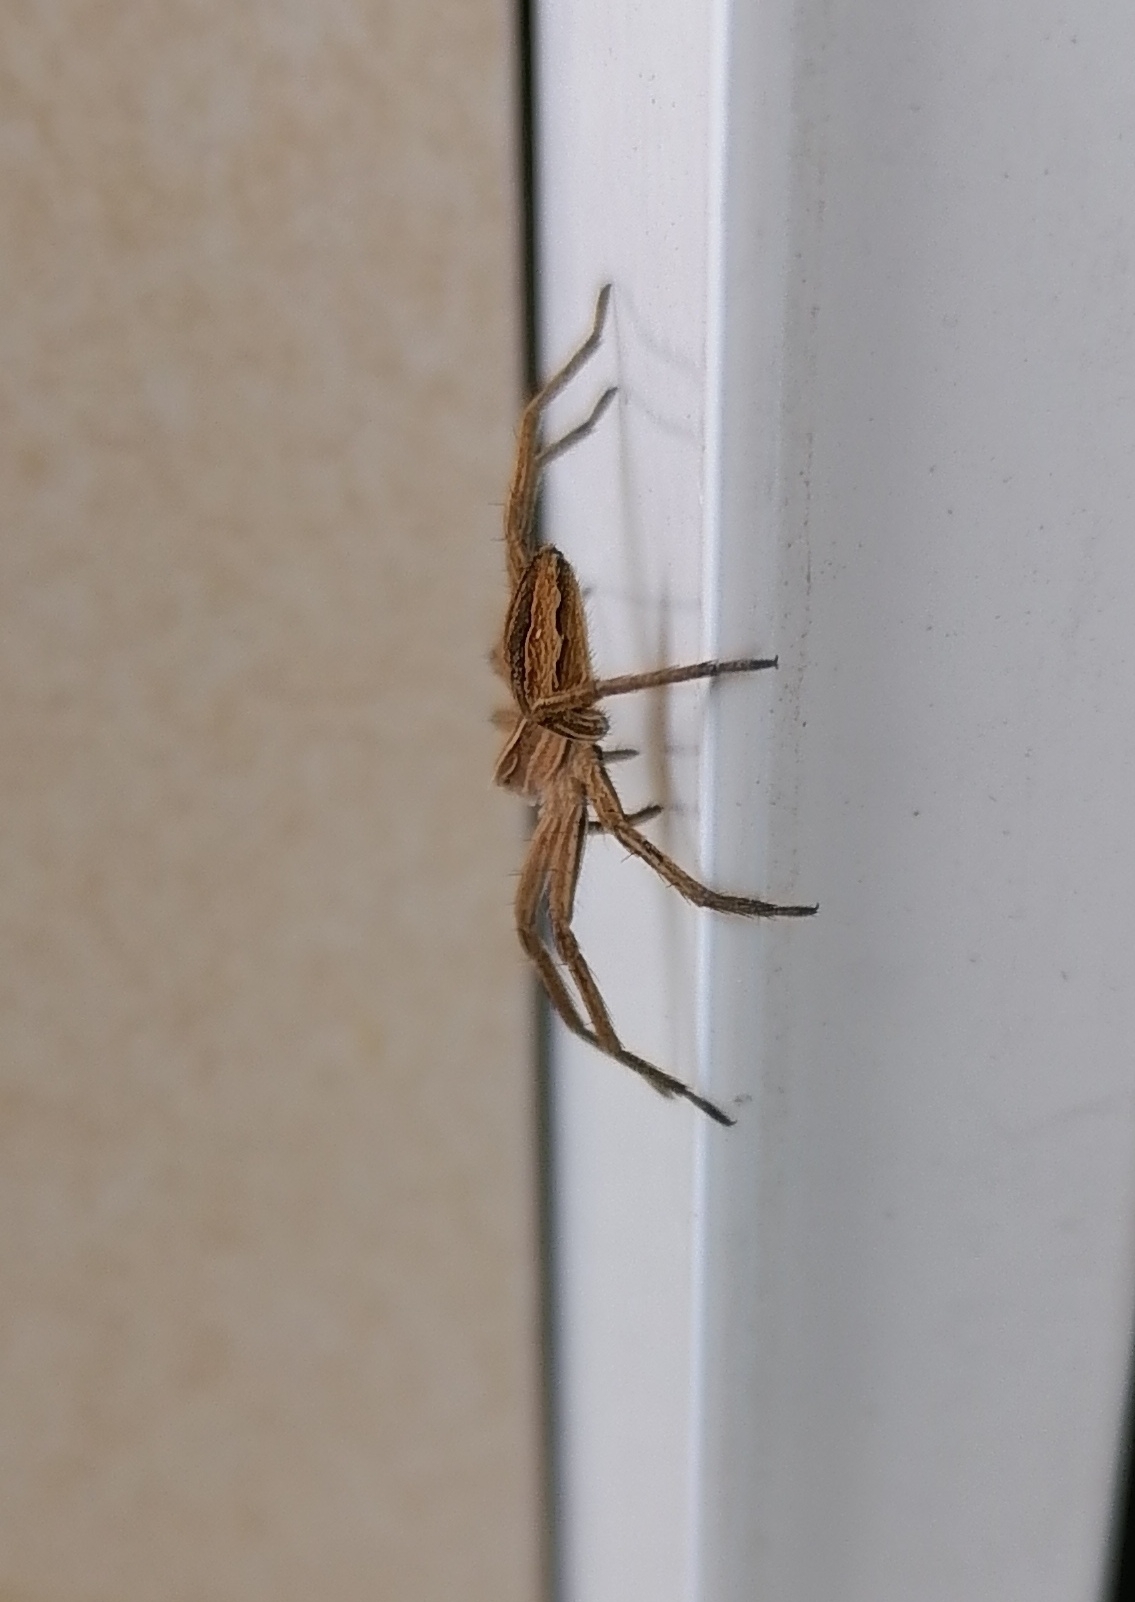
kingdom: Animalia
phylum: Arthropoda
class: Arachnida
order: Araneae
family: Pisauridae
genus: Pisaura
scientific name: Pisaura mirabilis
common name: Tent spider
